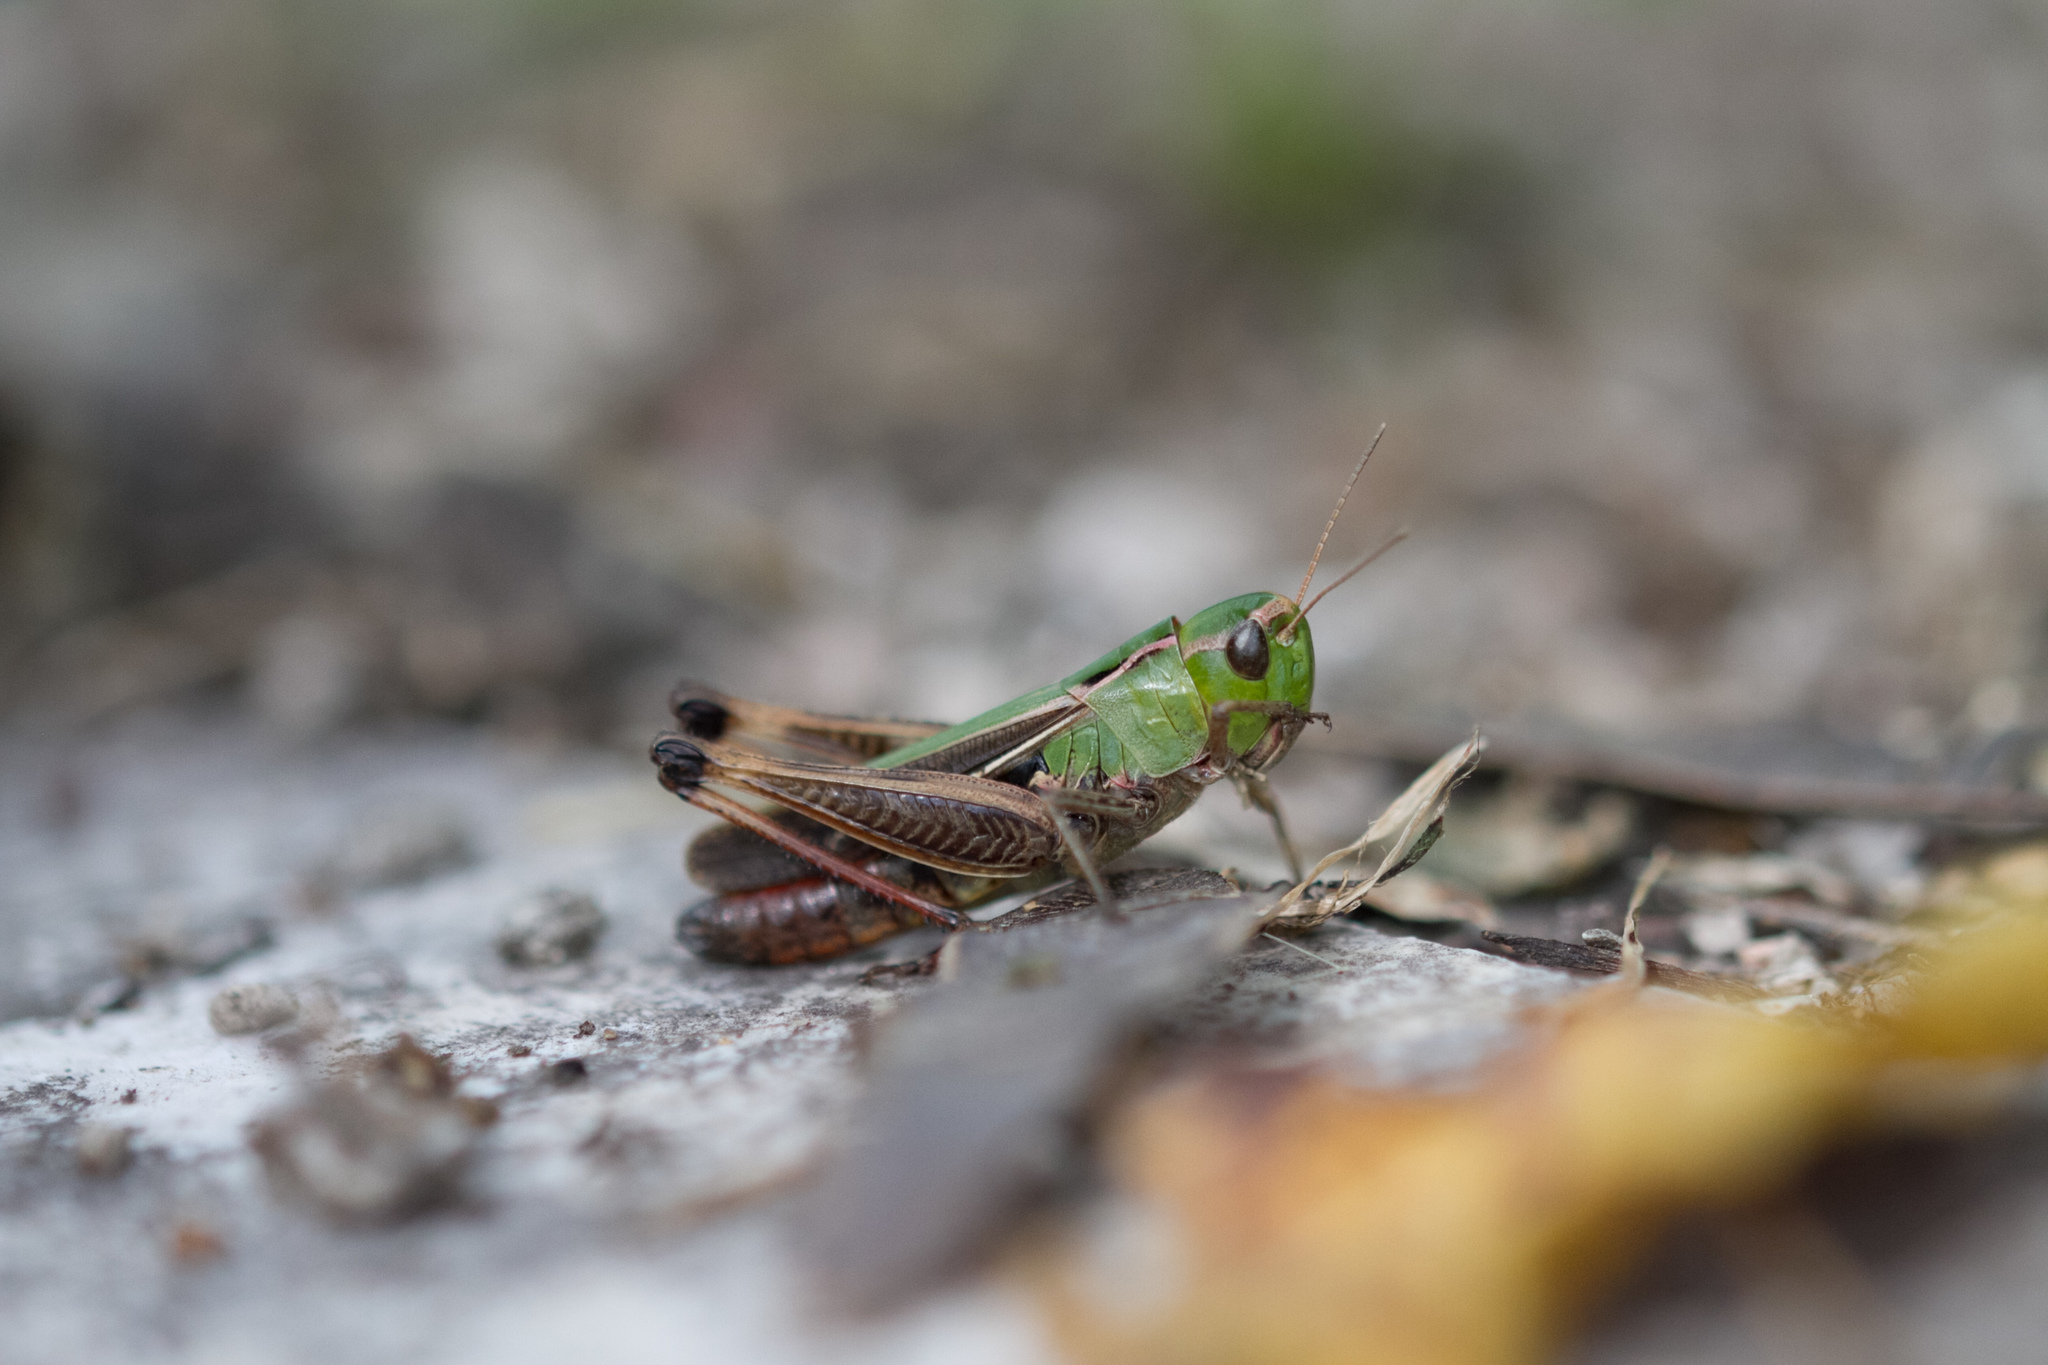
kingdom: Animalia
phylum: Arthropoda
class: Insecta
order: Orthoptera
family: Acrididae
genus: Stenobothrus
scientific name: Stenobothrus lineatus
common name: Stripe-winged grasshopper
